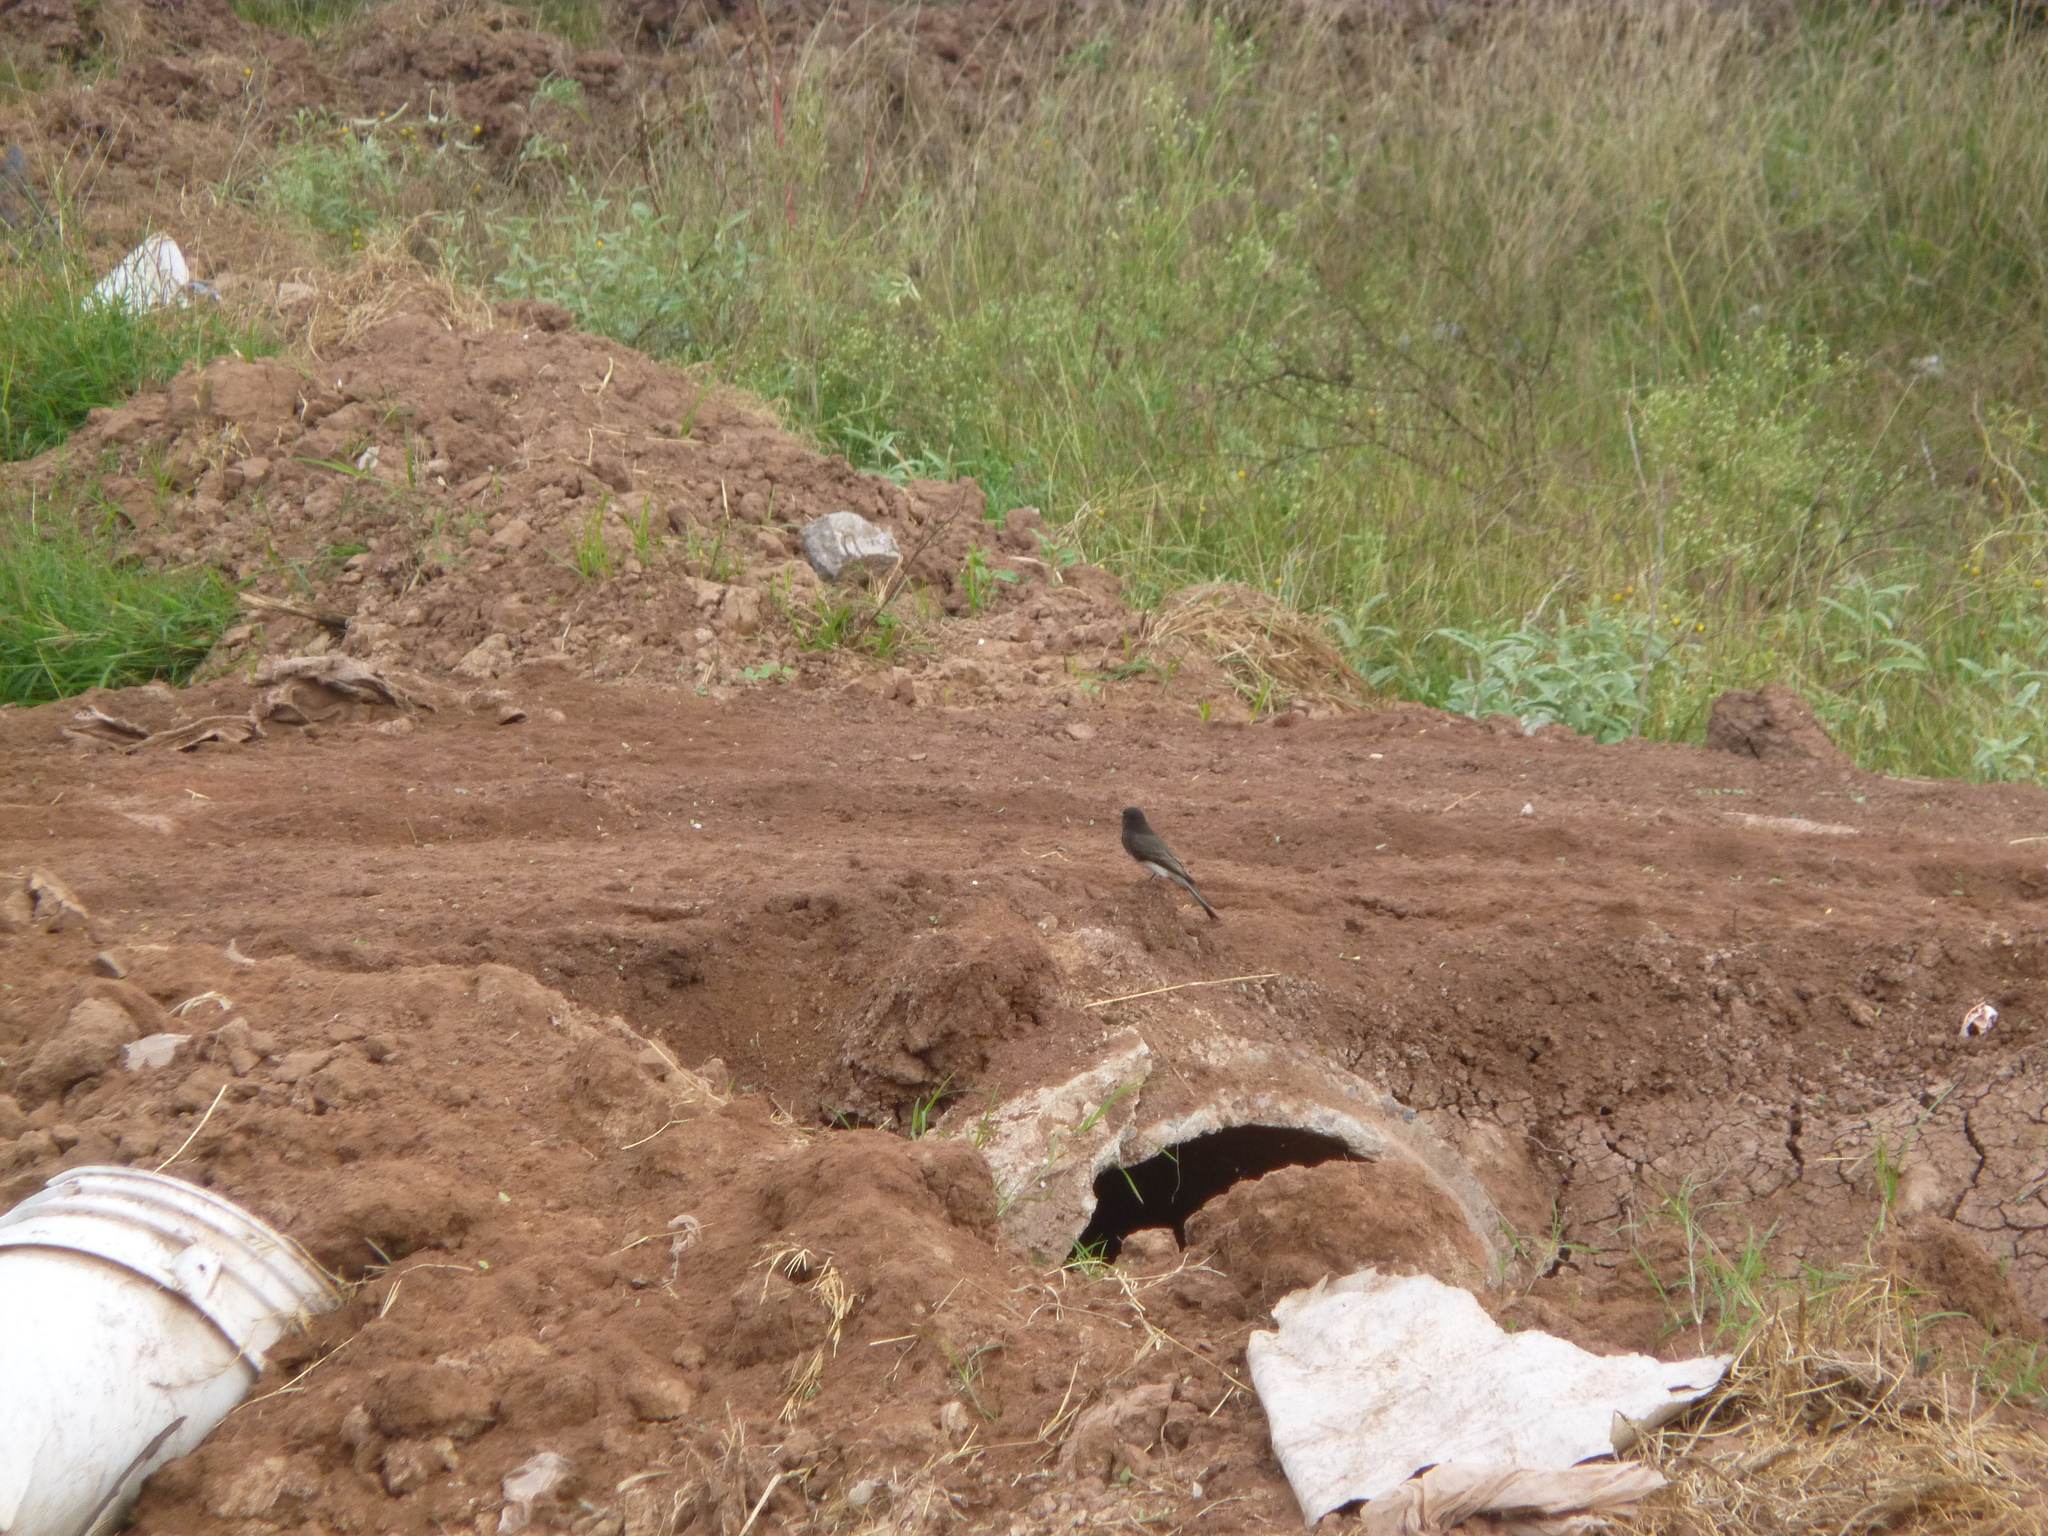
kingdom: Animalia
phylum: Chordata
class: Aves
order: Passeriformes
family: Tyrannidae
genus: Sayornis
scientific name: Sayornis nigricans
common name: Black phoebe
